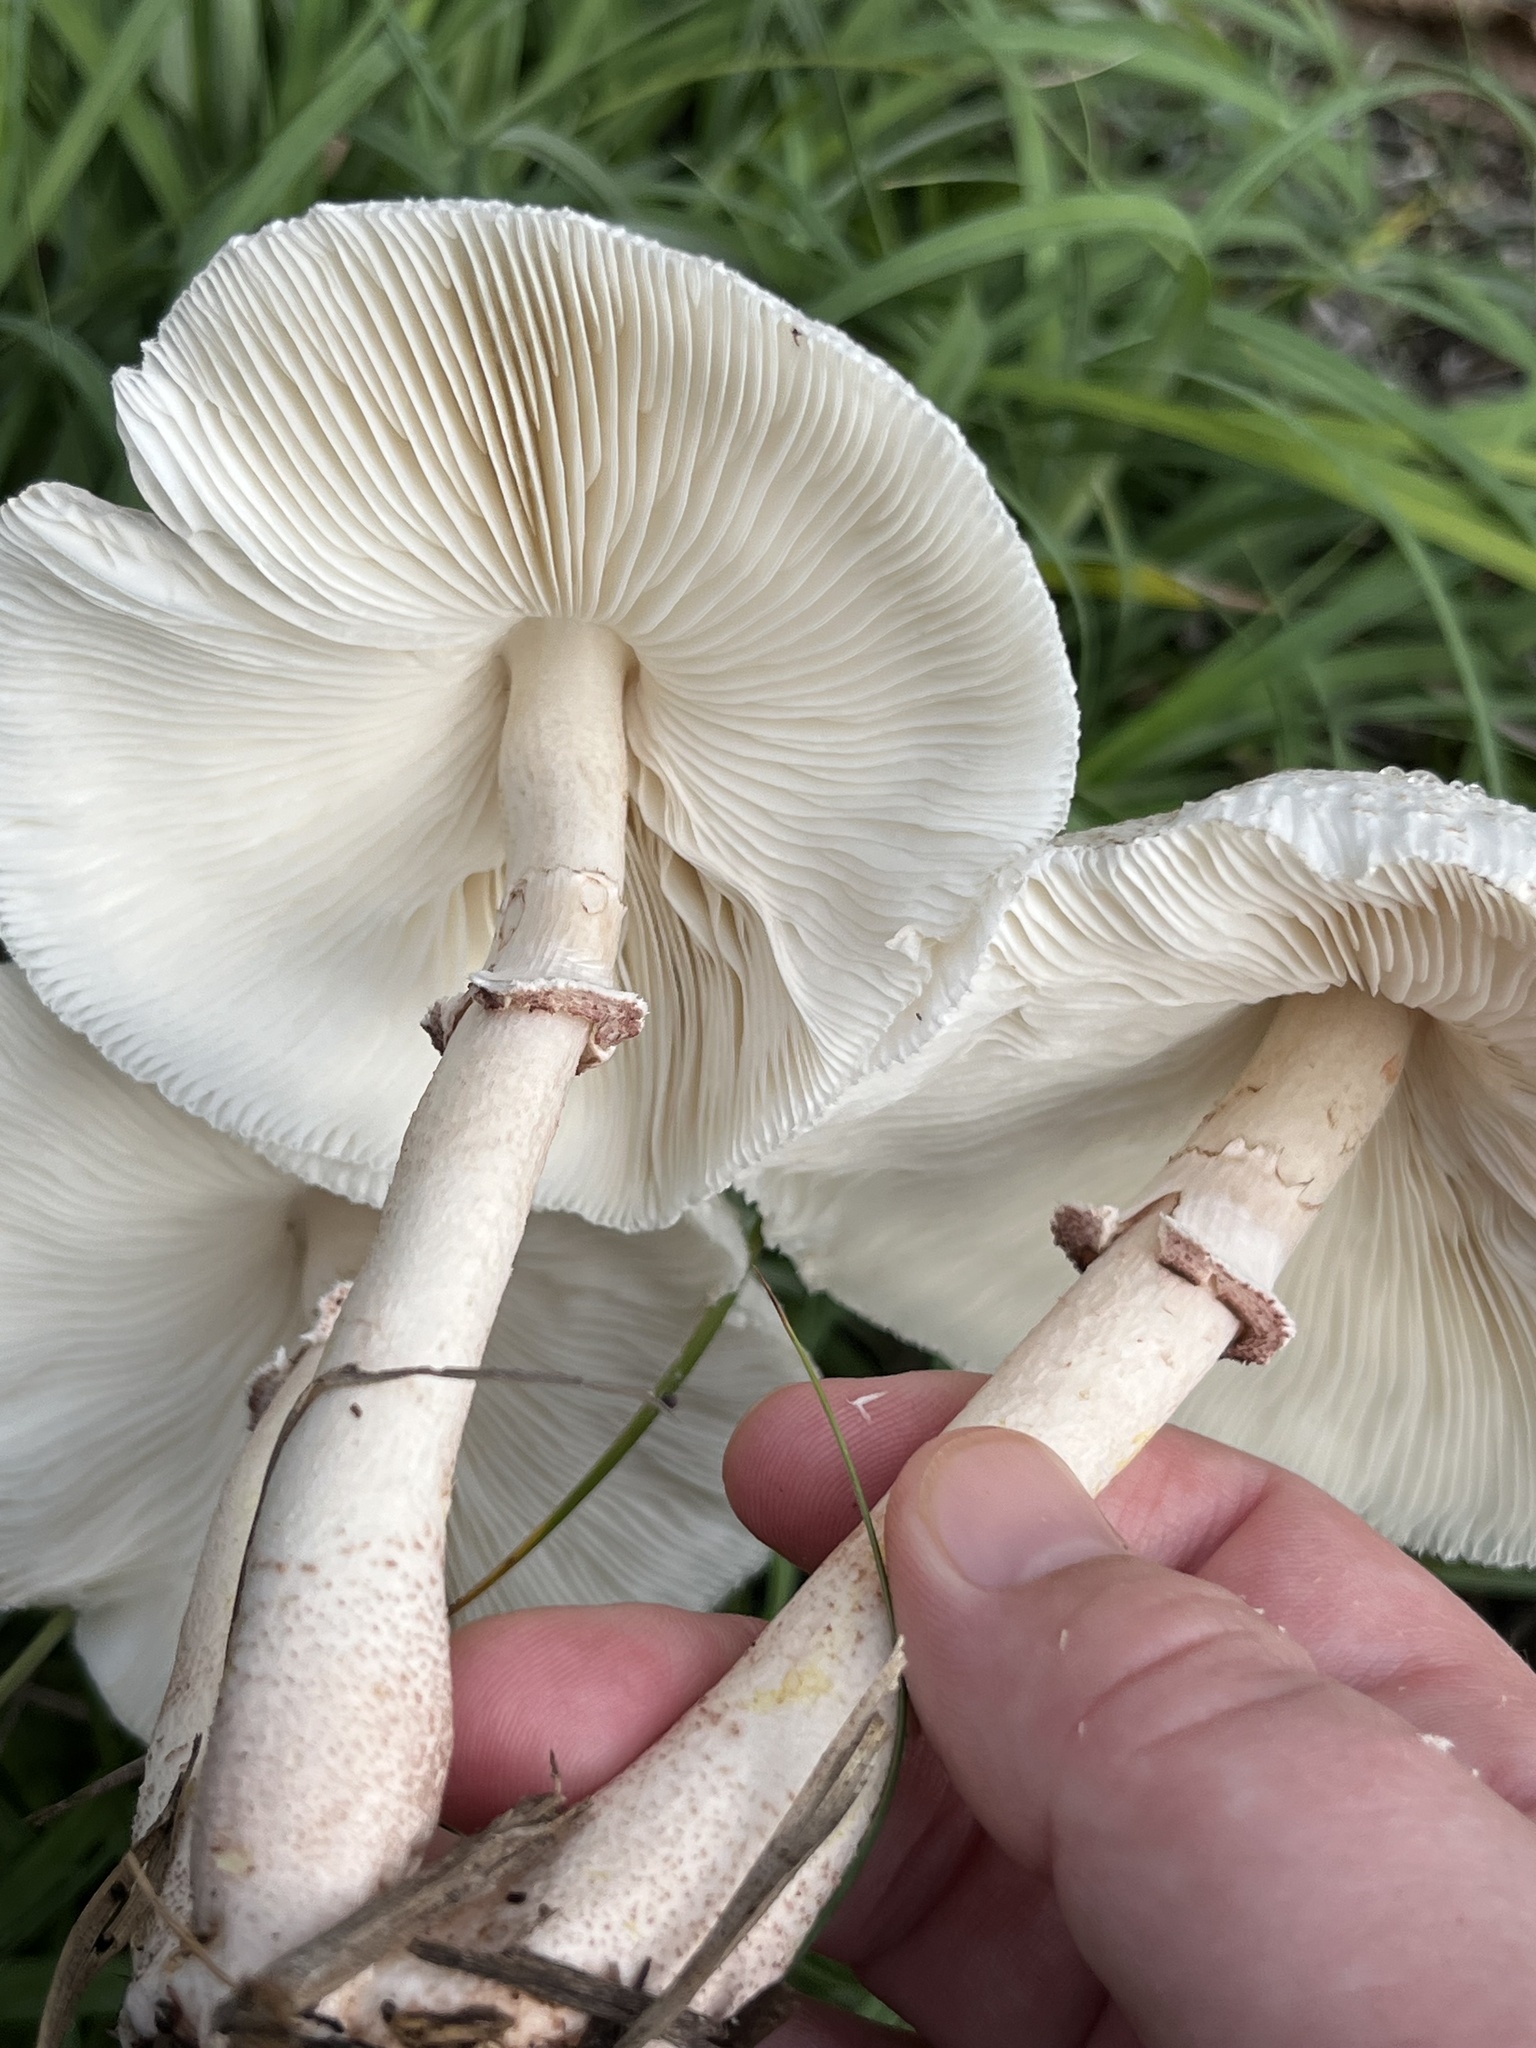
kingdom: Fungi
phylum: Basidiomycota
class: Agaricomycetes
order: Agaricales
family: Agaricaceae
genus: Leucoagaricus
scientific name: Leucoagaricus americanus
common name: Reddening lepiota
